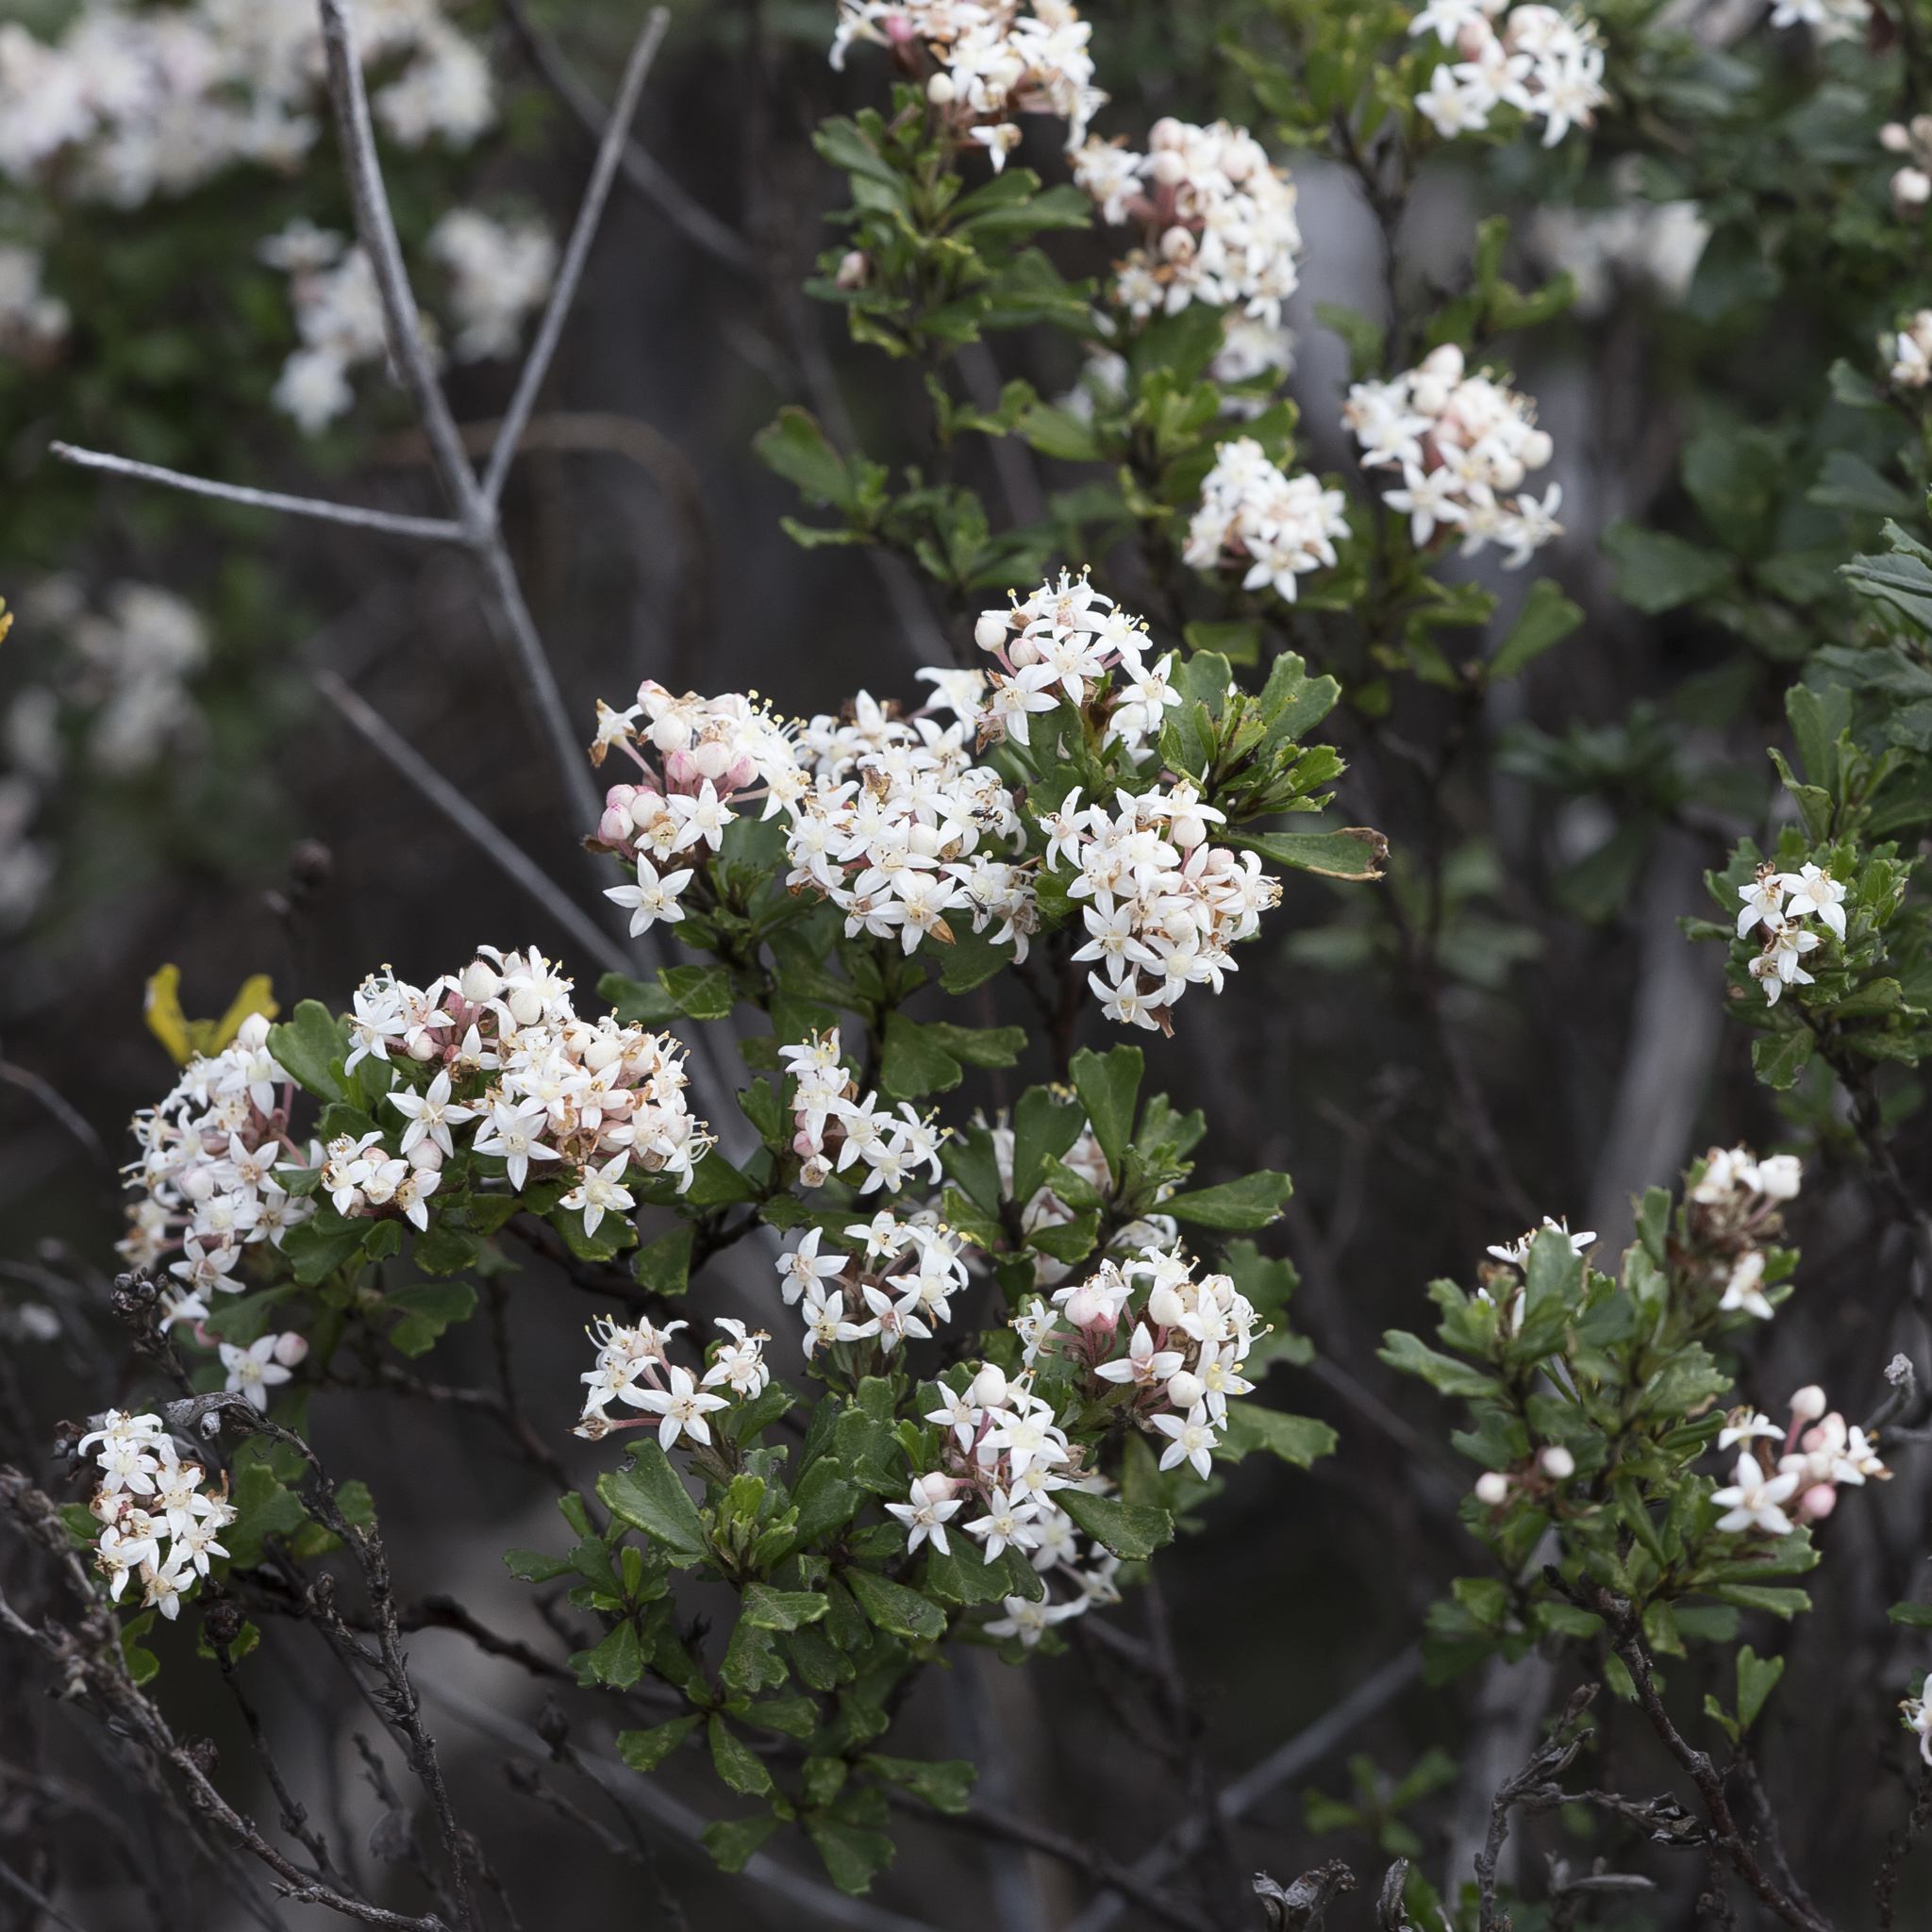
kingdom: Plantae
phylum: Tracheophyta
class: Magnoliopsida
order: Rosales
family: Rhamnaceae
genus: Pomaderris
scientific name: Pomaderris obcordata
